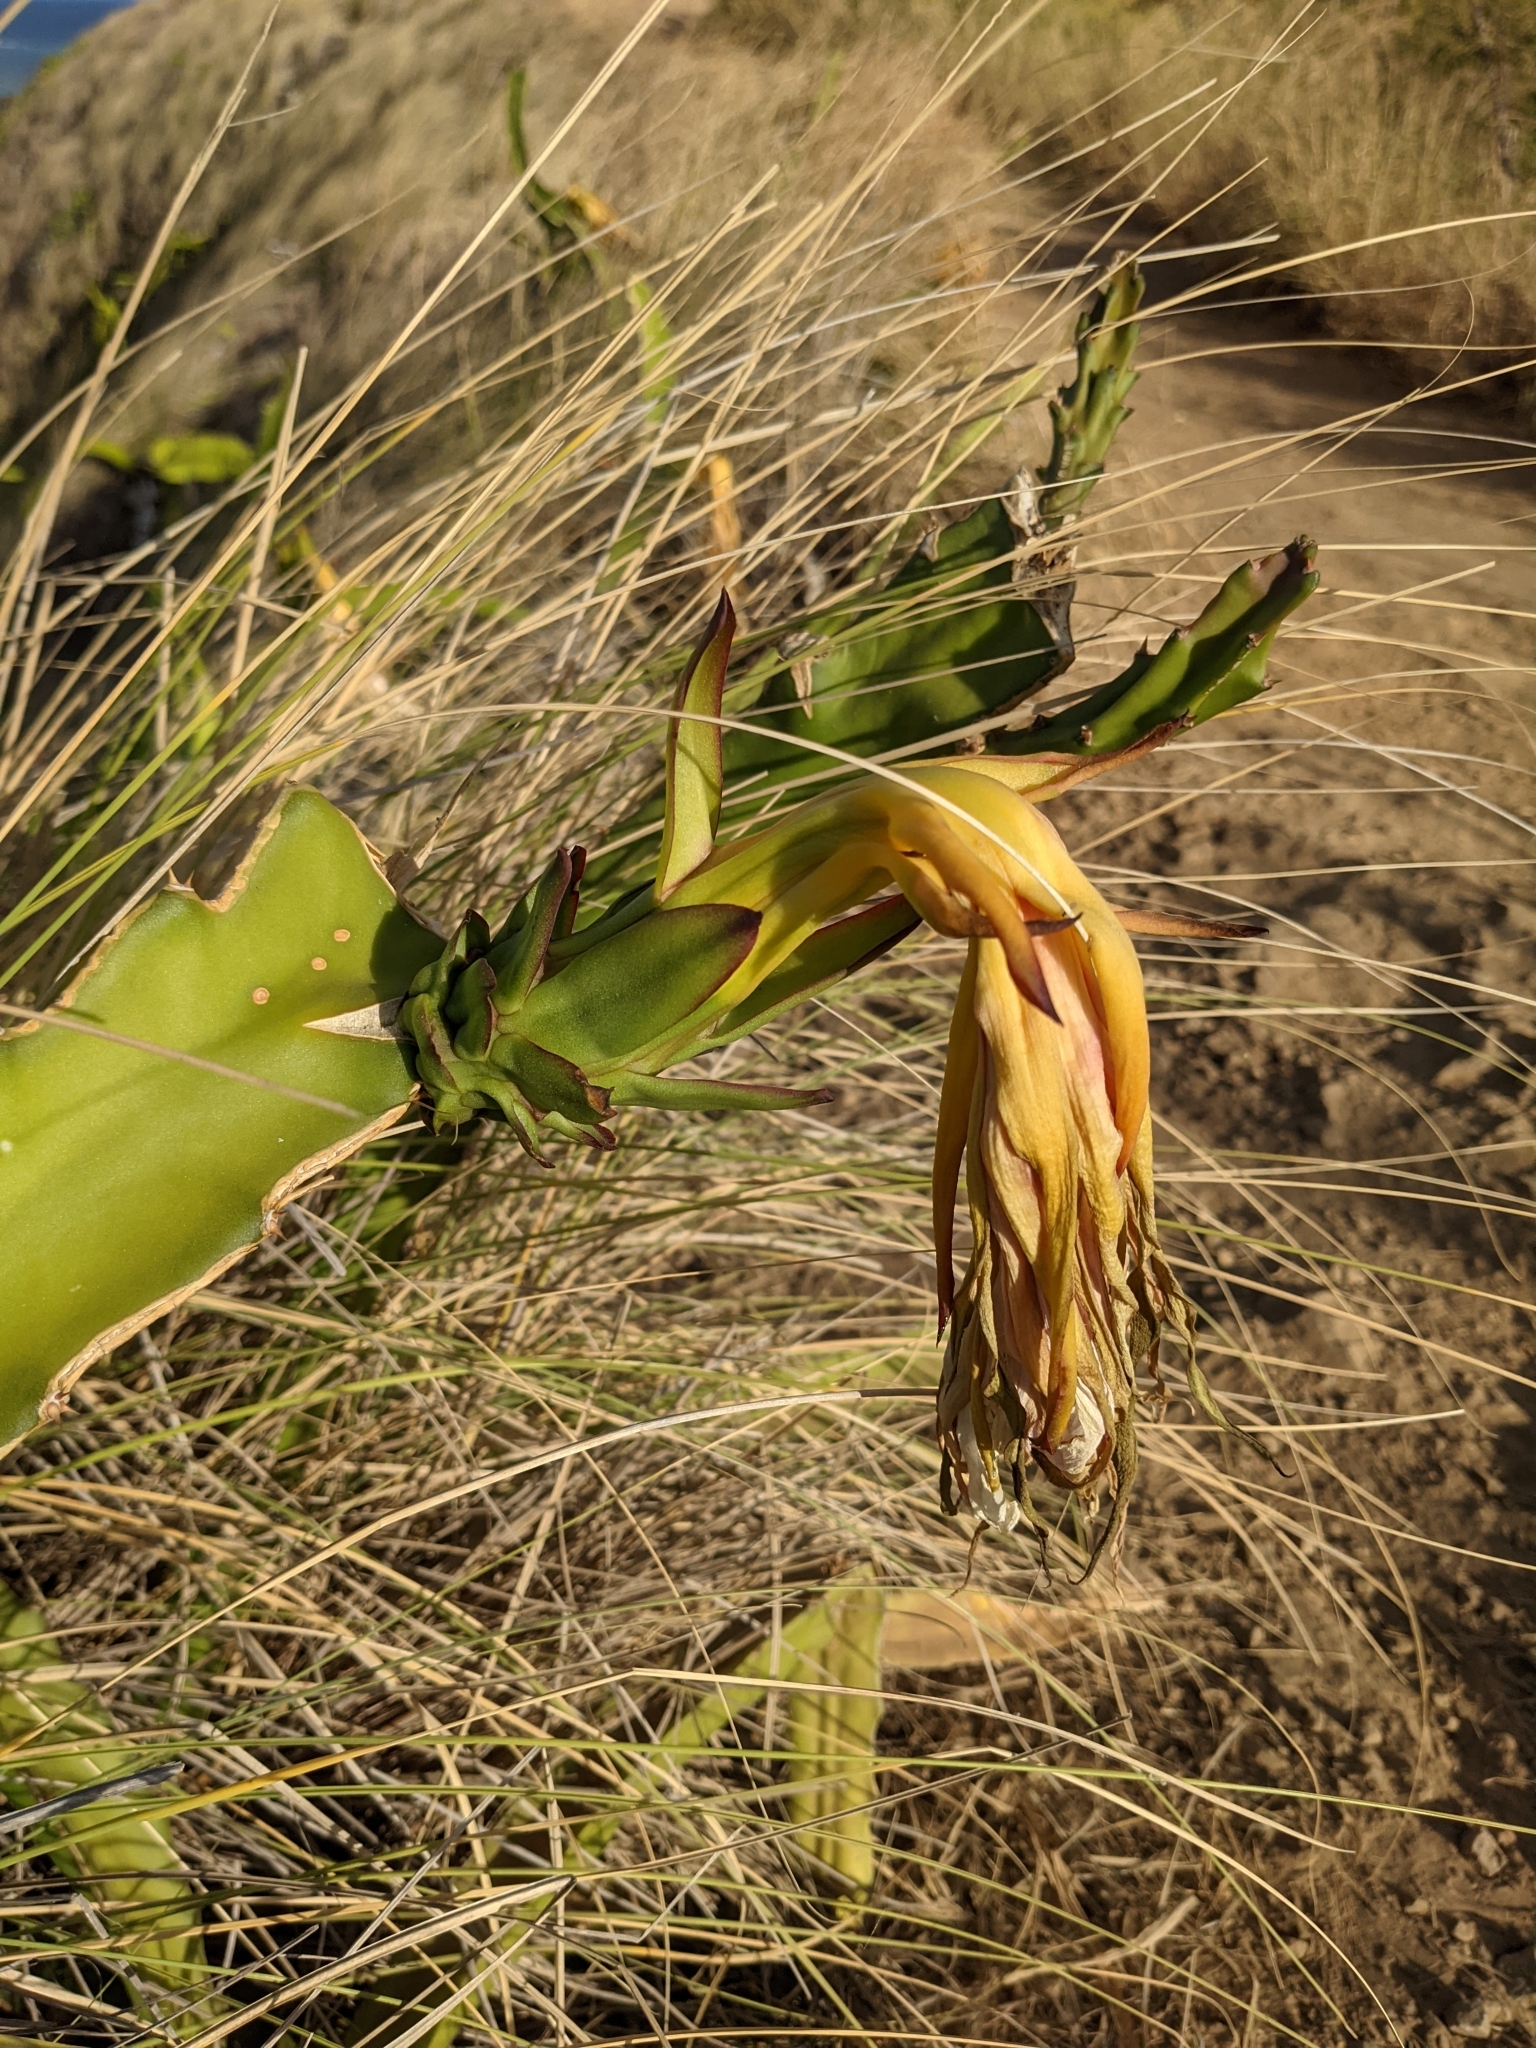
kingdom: Plantae
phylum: Tracheophyta
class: Magnoliopsida
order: Caryophyllales
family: Cactaceae
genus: Selenicereus
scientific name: Selenicereus undatus
